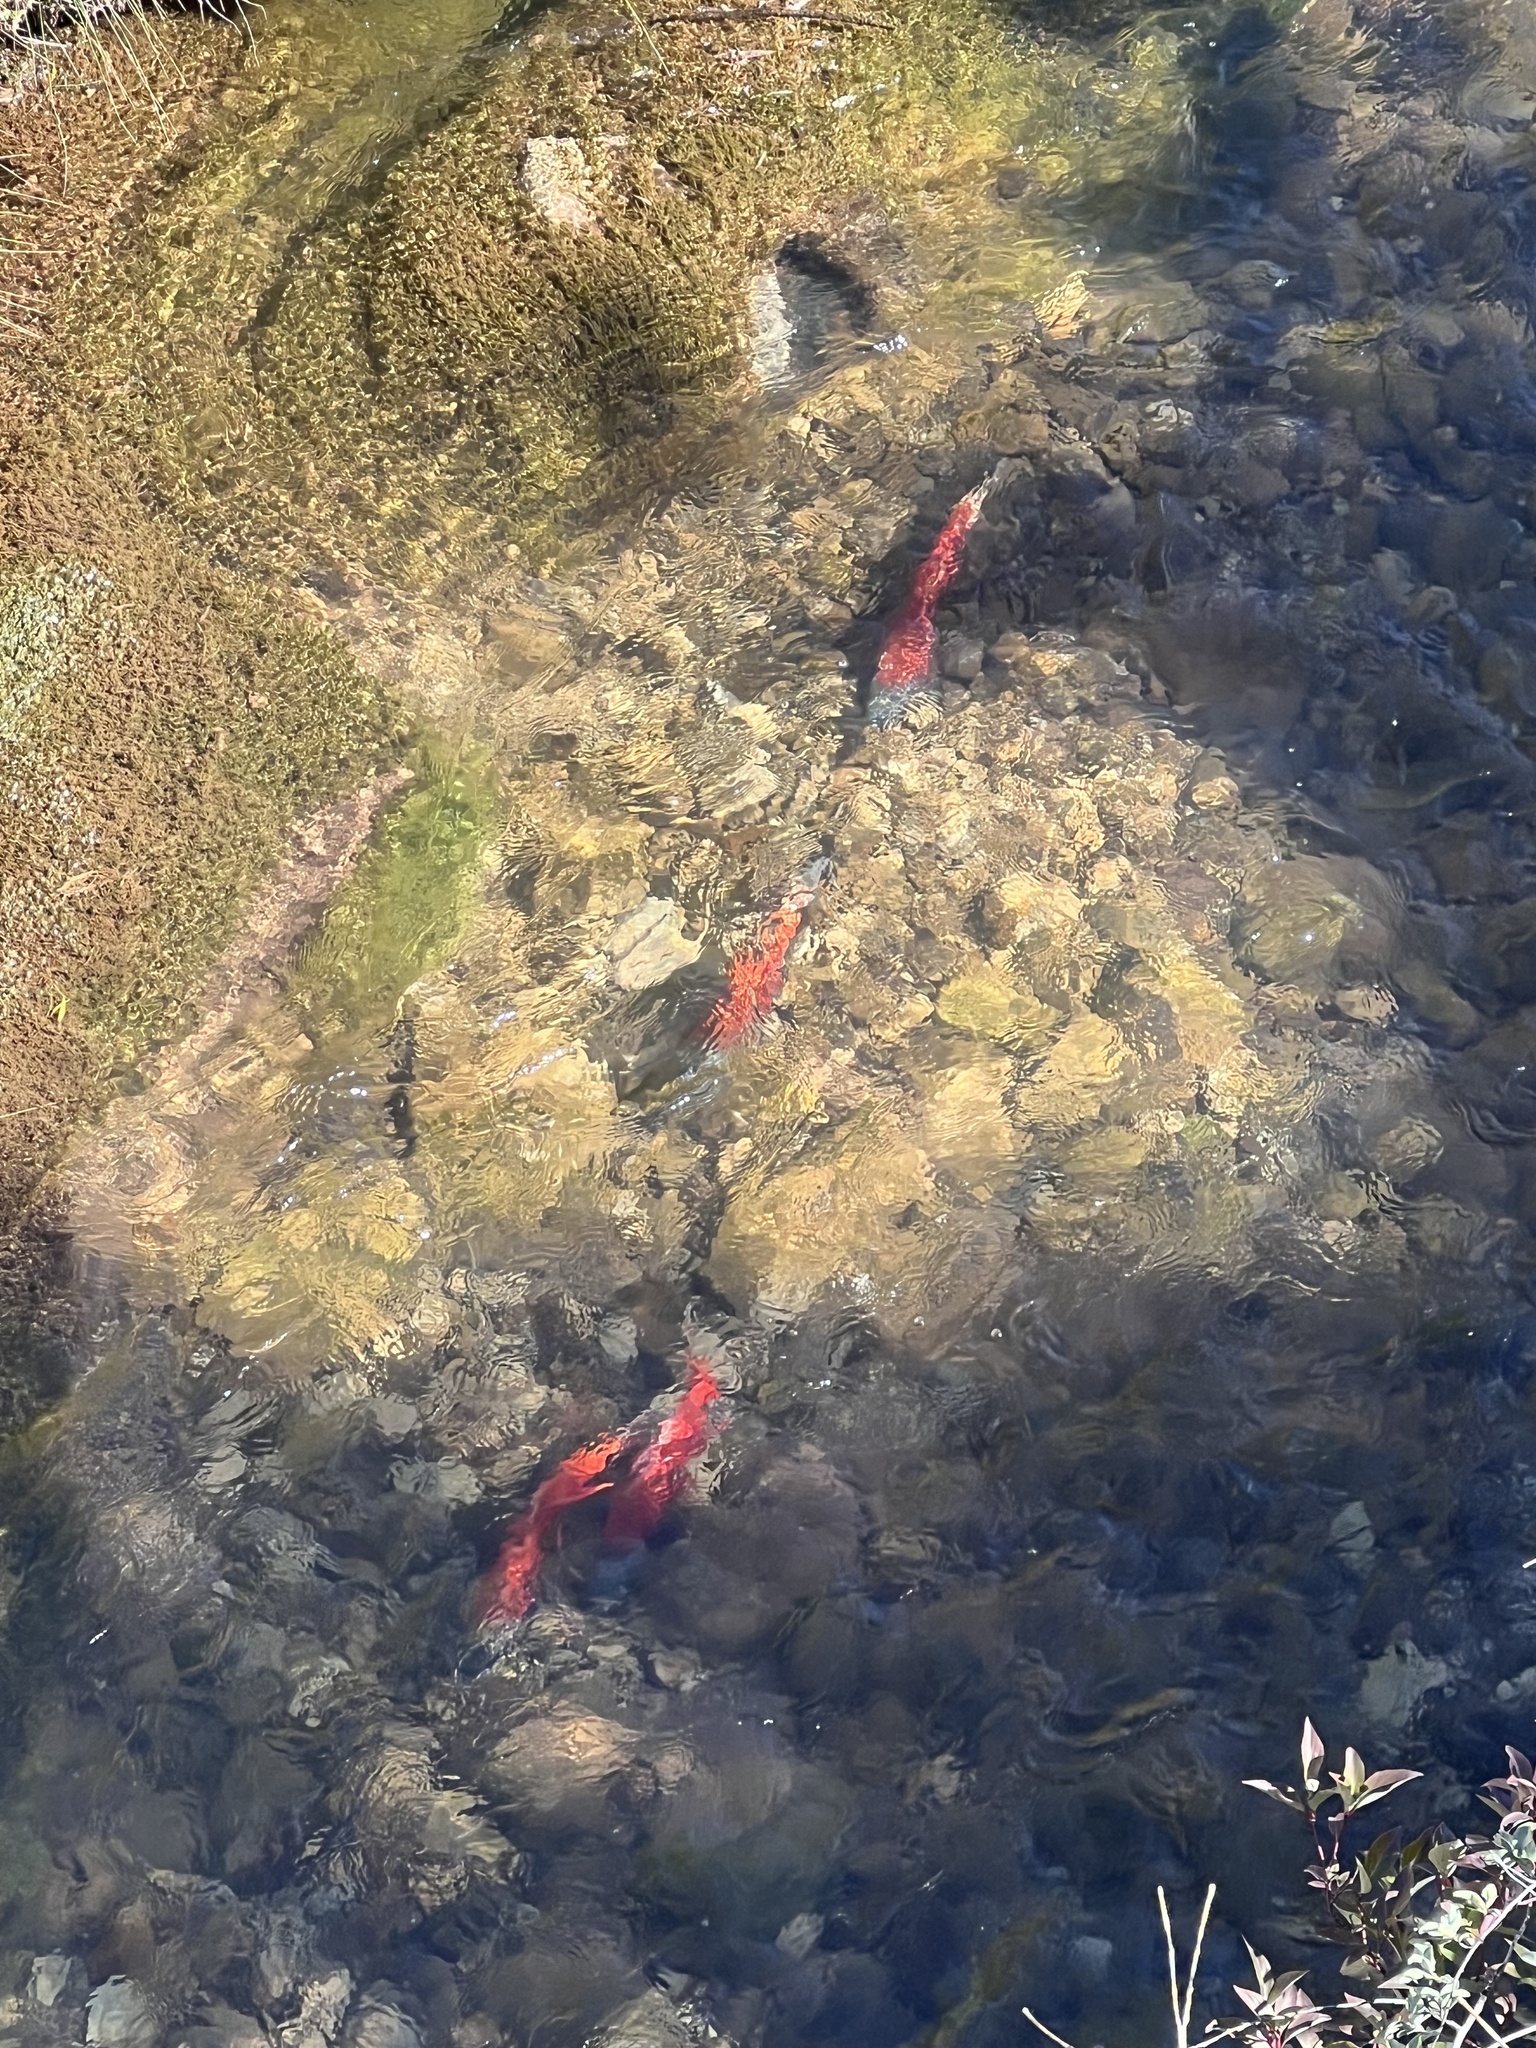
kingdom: Animalia
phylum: Chordata
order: Salmoniformes
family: Salmonidae
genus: Oncorhynchus
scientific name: Oncorhynchus nerka
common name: Sockeye salmon
